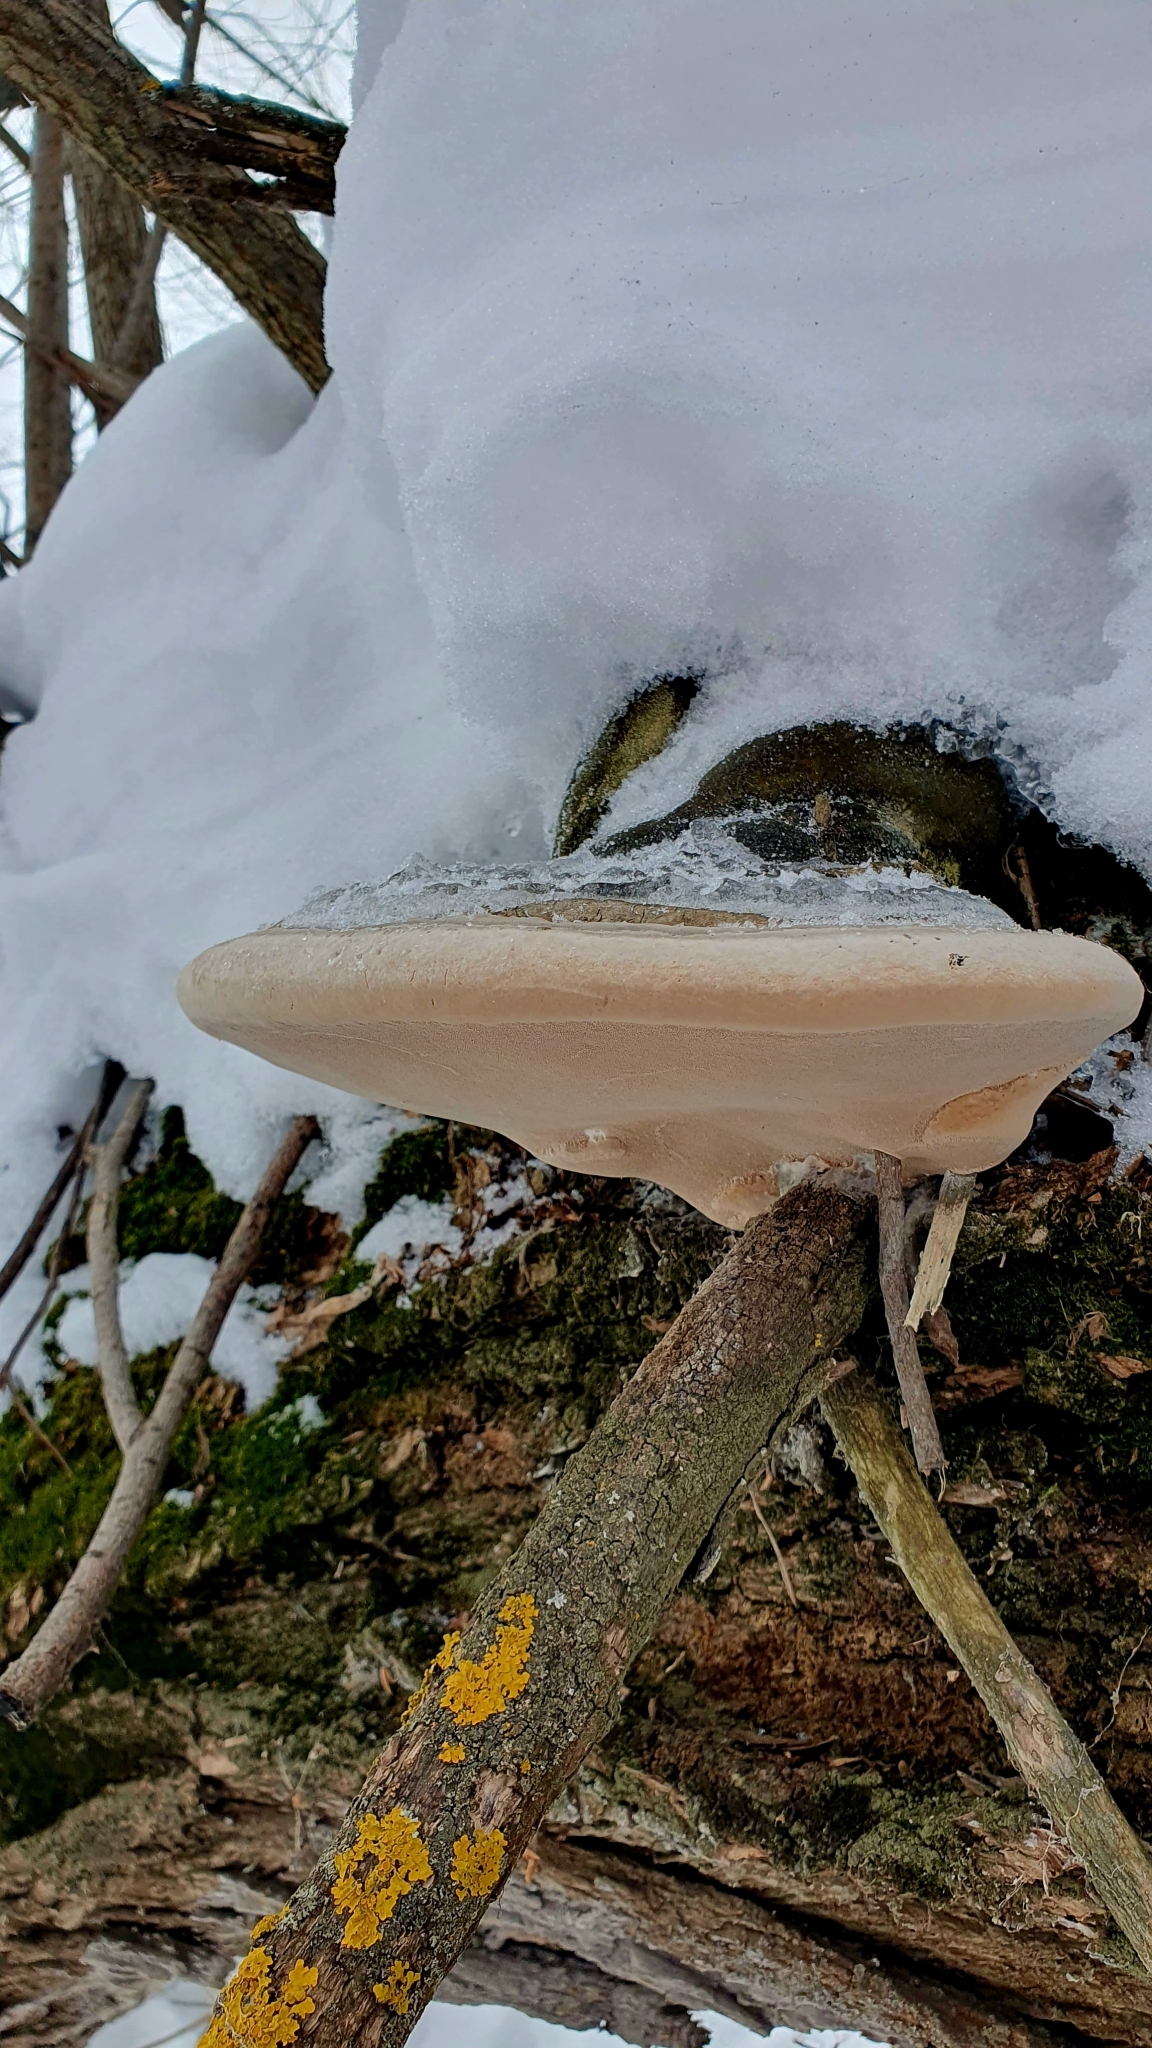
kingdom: Fungi
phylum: Basidiomycota
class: Agaricomycetes
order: Polyporales
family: Polyporaceae
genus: Fomes
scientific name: Fomes fomentarius
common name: Hoof fungus
